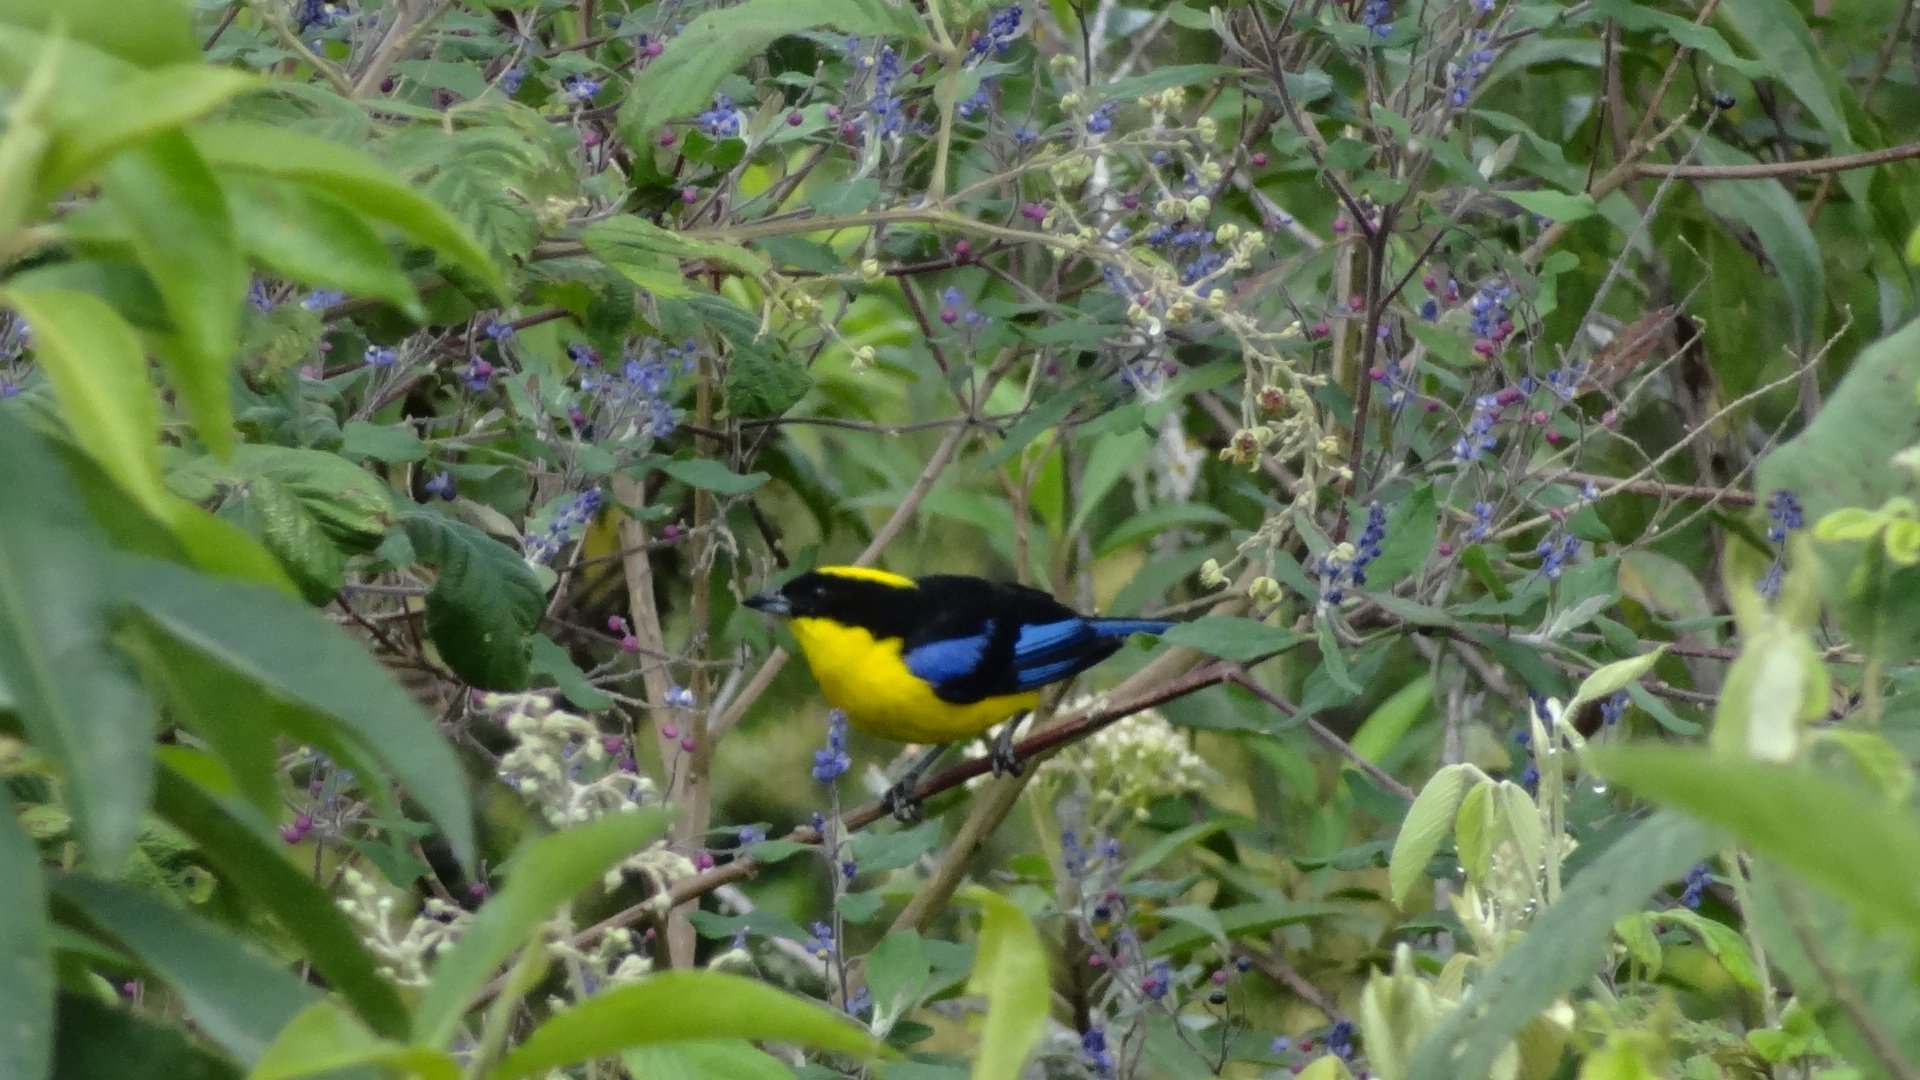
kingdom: Animalia
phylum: Chordata
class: Aves
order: Passeriformes
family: Thraupidae
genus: Anisognathus
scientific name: Anisognathus somptuosus
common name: Blue-winged mountain-tanager
